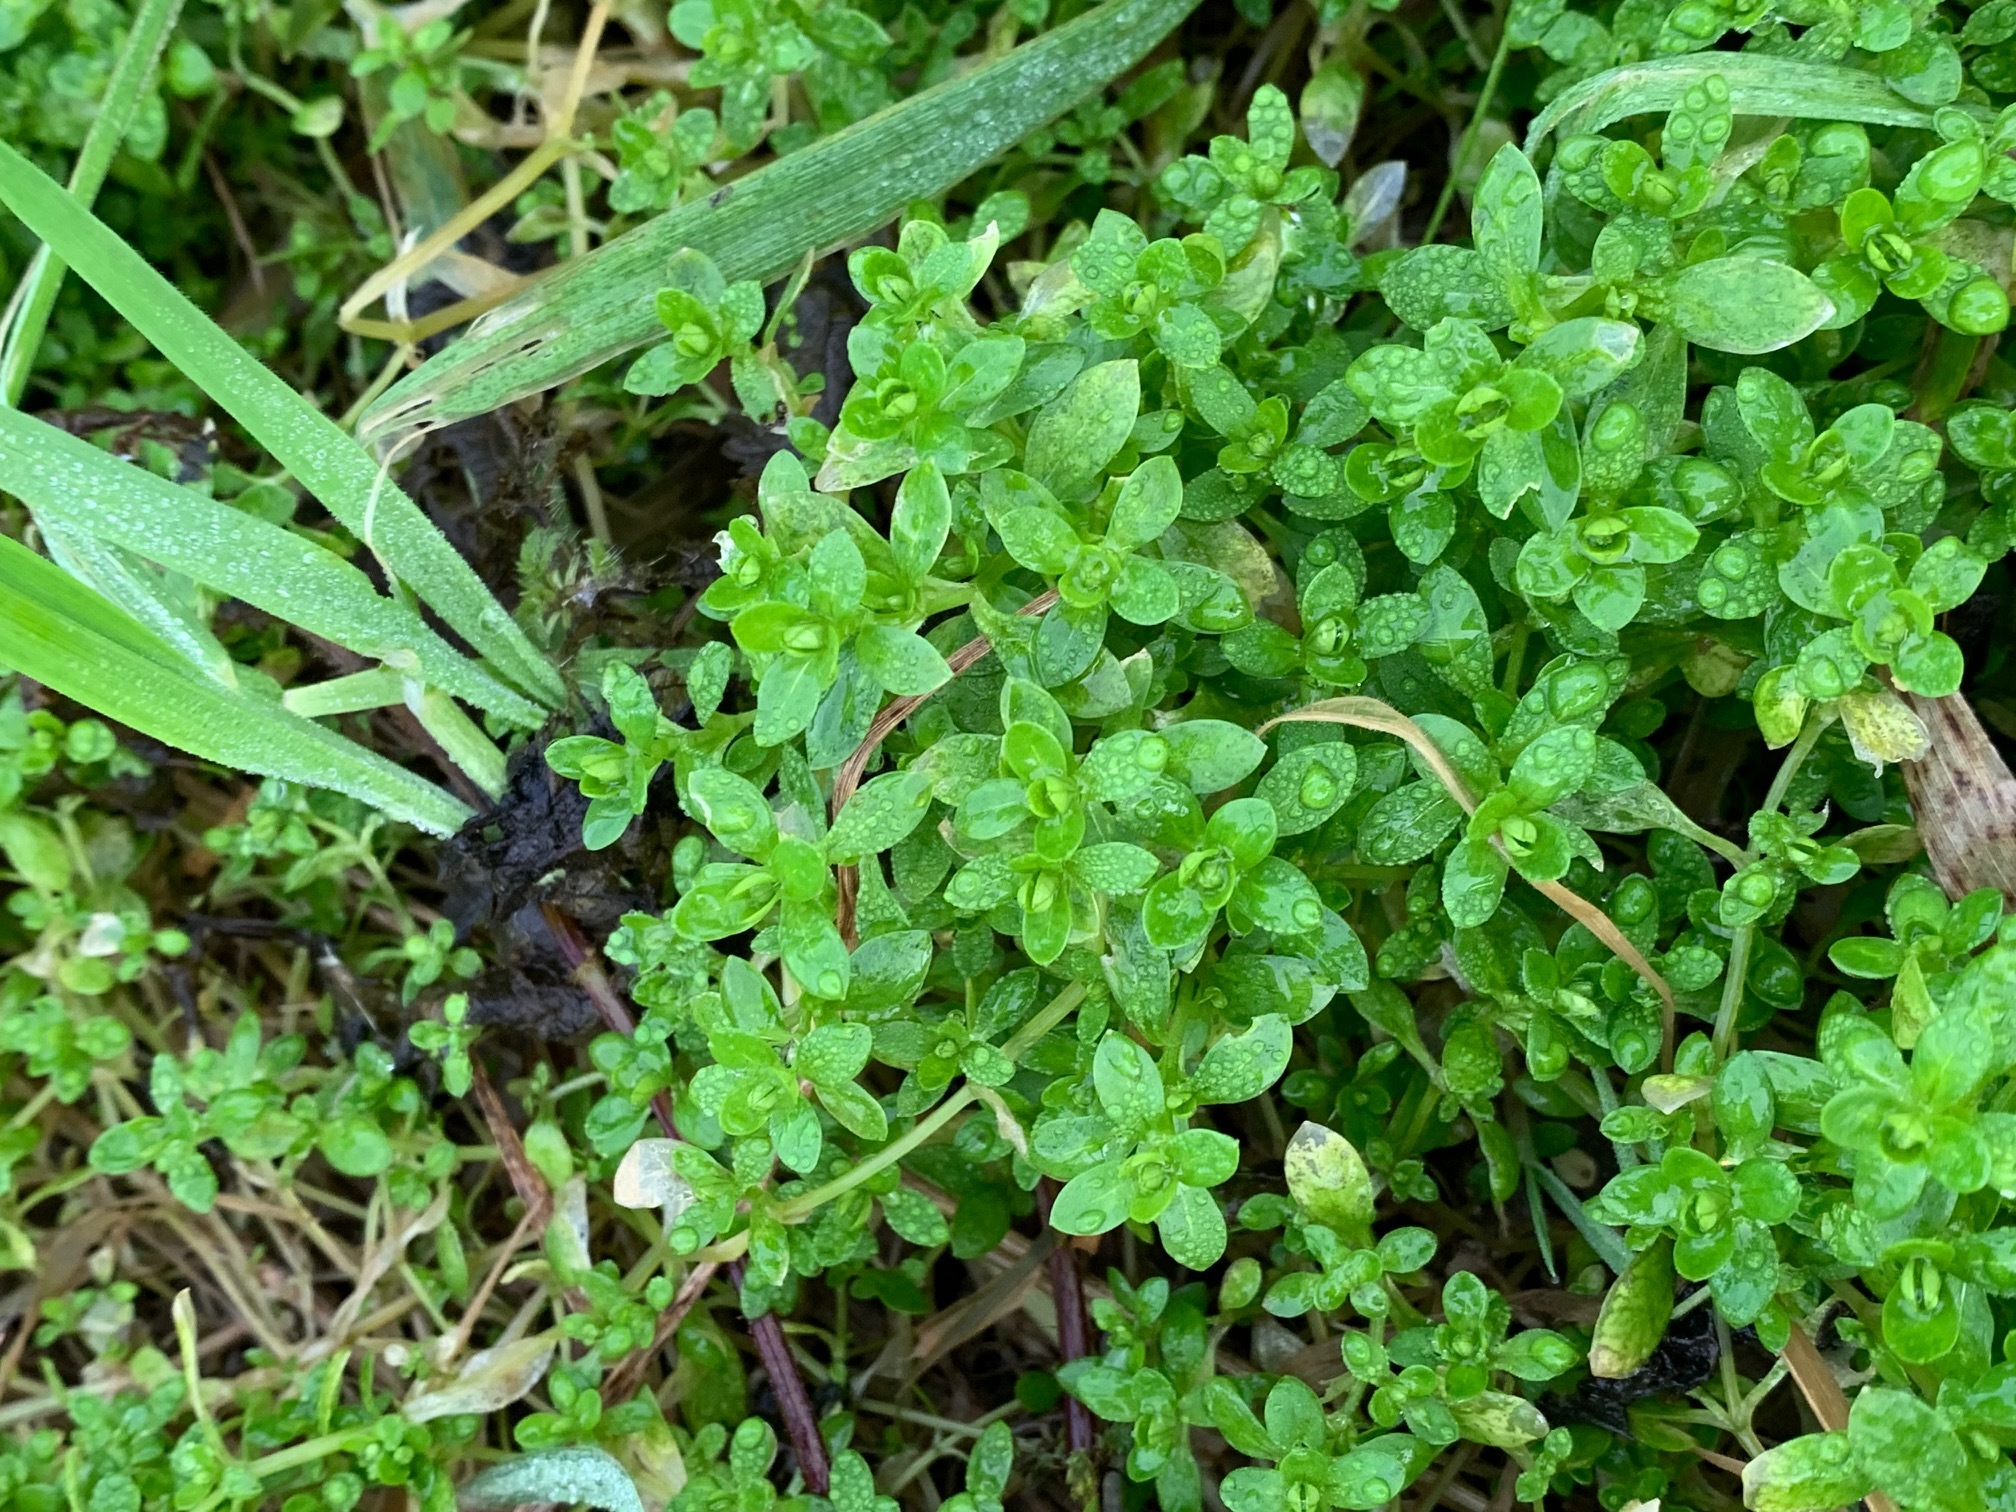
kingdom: Plantae
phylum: Tracheophyta
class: Magnoliopsida
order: Caryophyllales
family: Caryophyllaceae
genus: Stellaria
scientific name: Stellaria media
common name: Common chickweed
